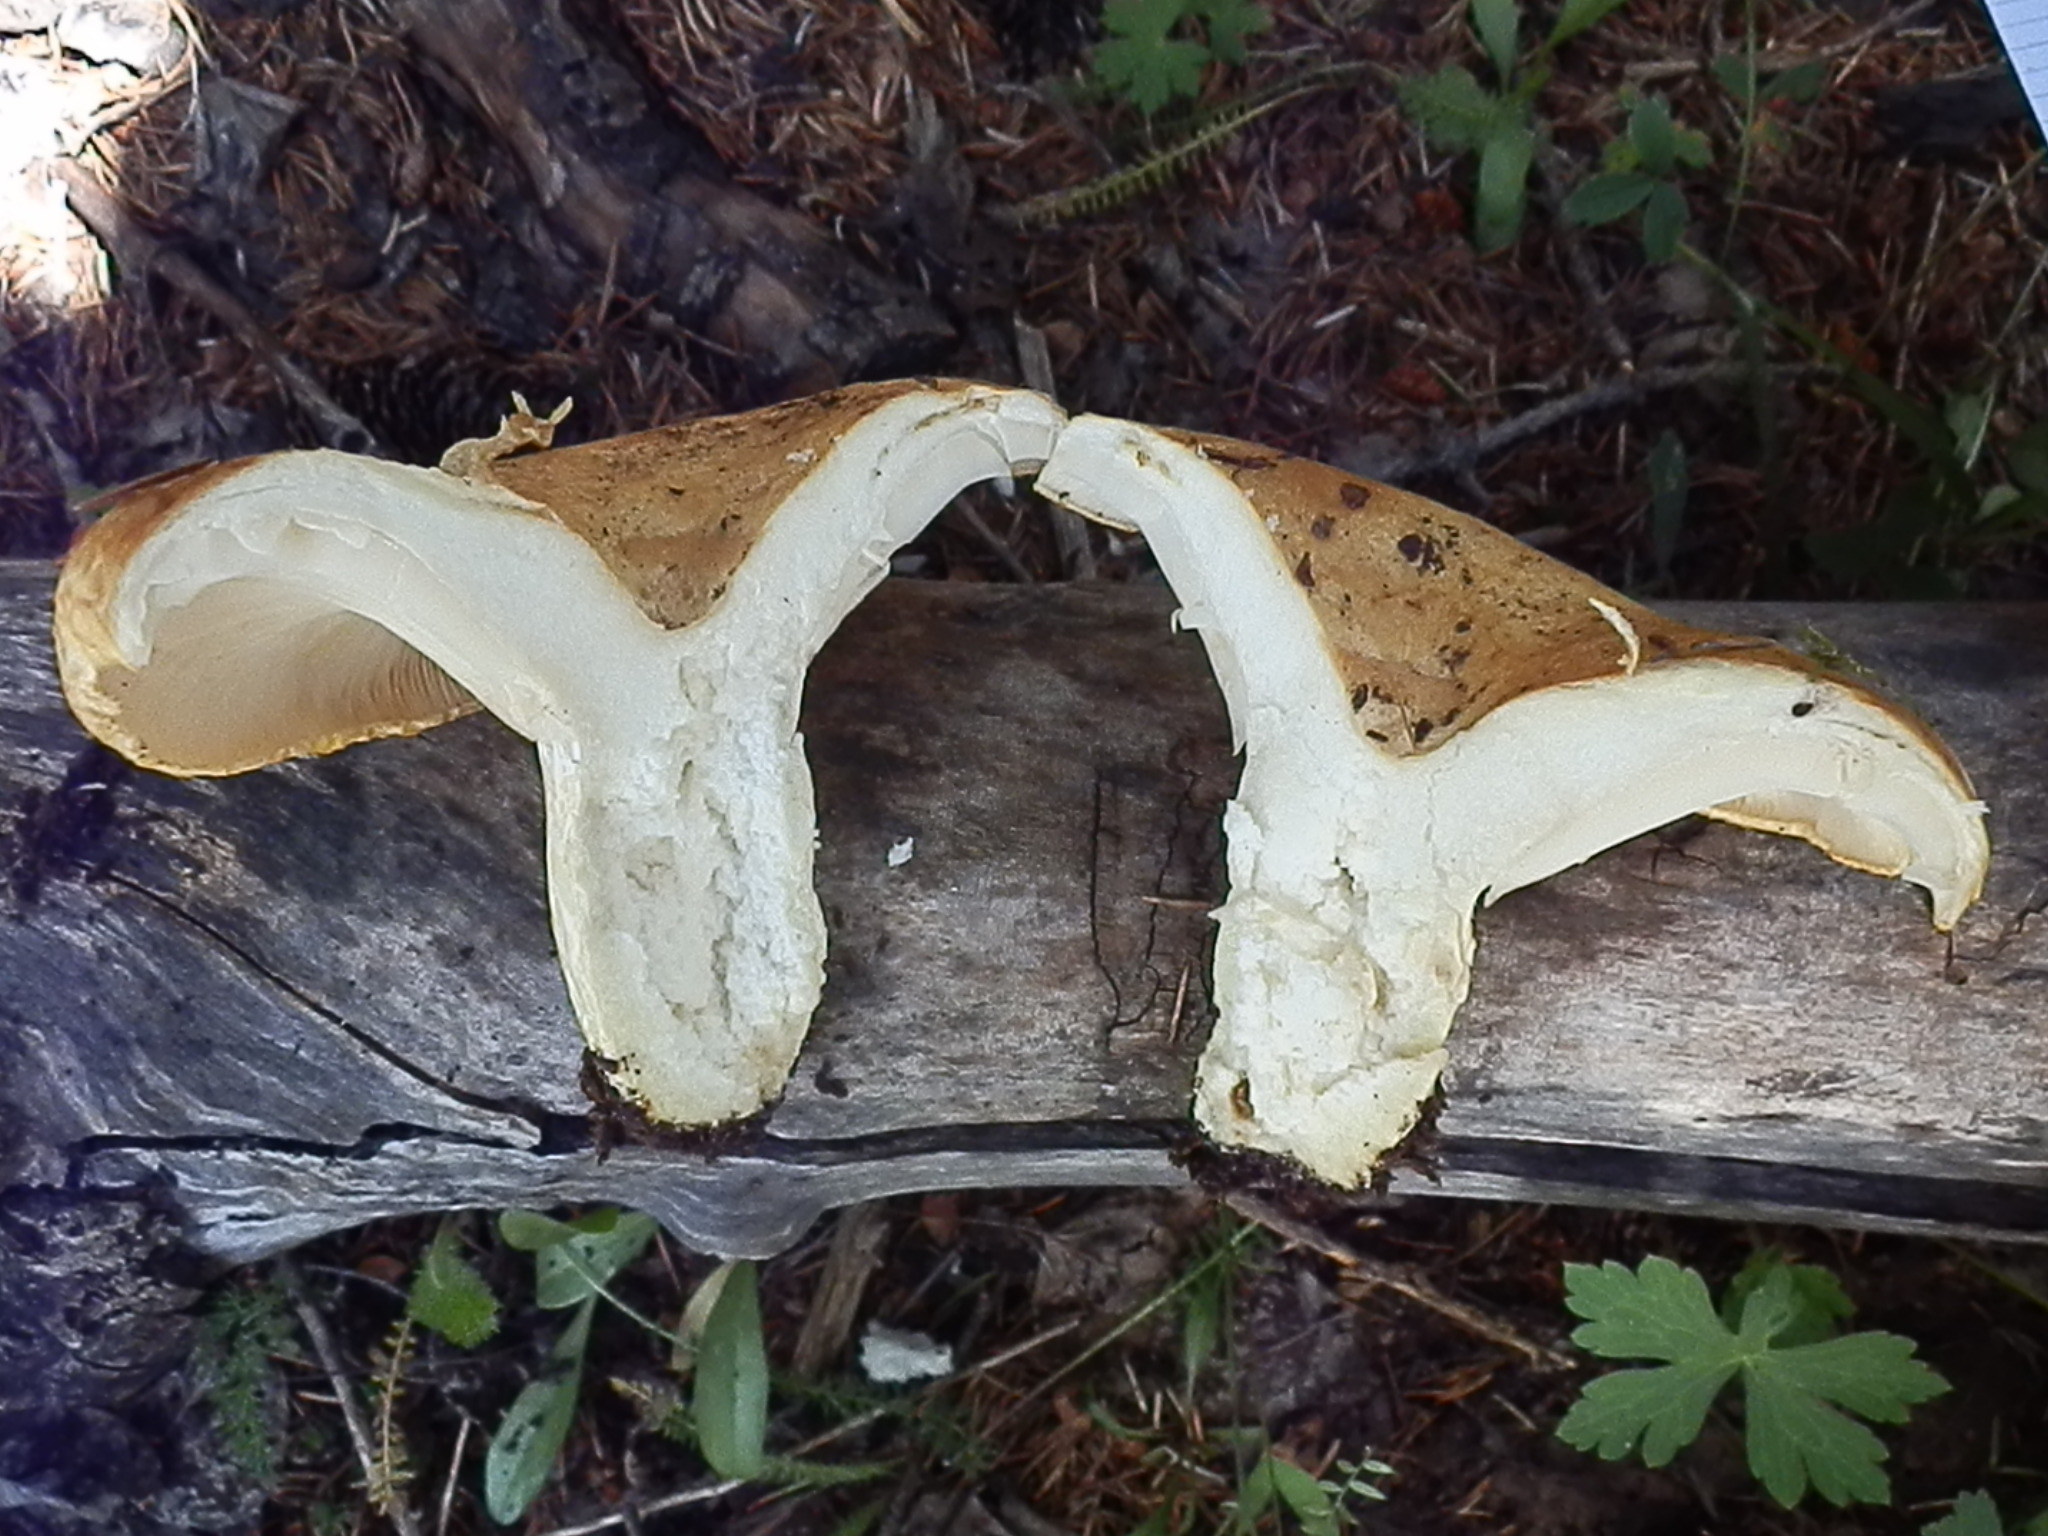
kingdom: Fungi
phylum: Basidiomycota
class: Agaricomycetes
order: Russulales
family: Russulaceae
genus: Lactarius
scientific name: Lactarius alnicola
